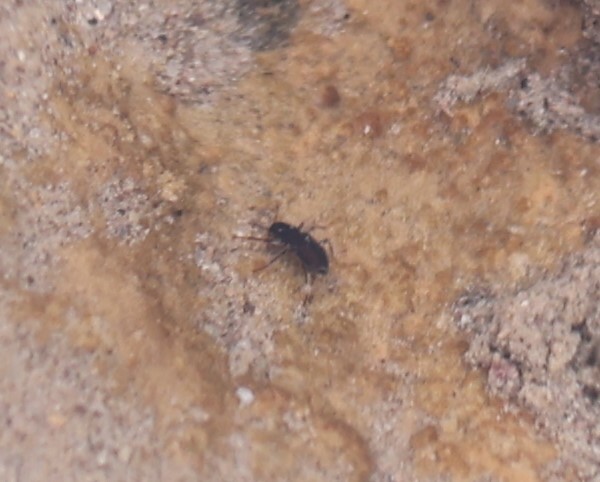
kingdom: Animalia
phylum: Arthropoda
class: Insecta
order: Coleoptera
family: Elmidae
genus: Microcylloepus
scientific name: Microcylloepus formicoideus
